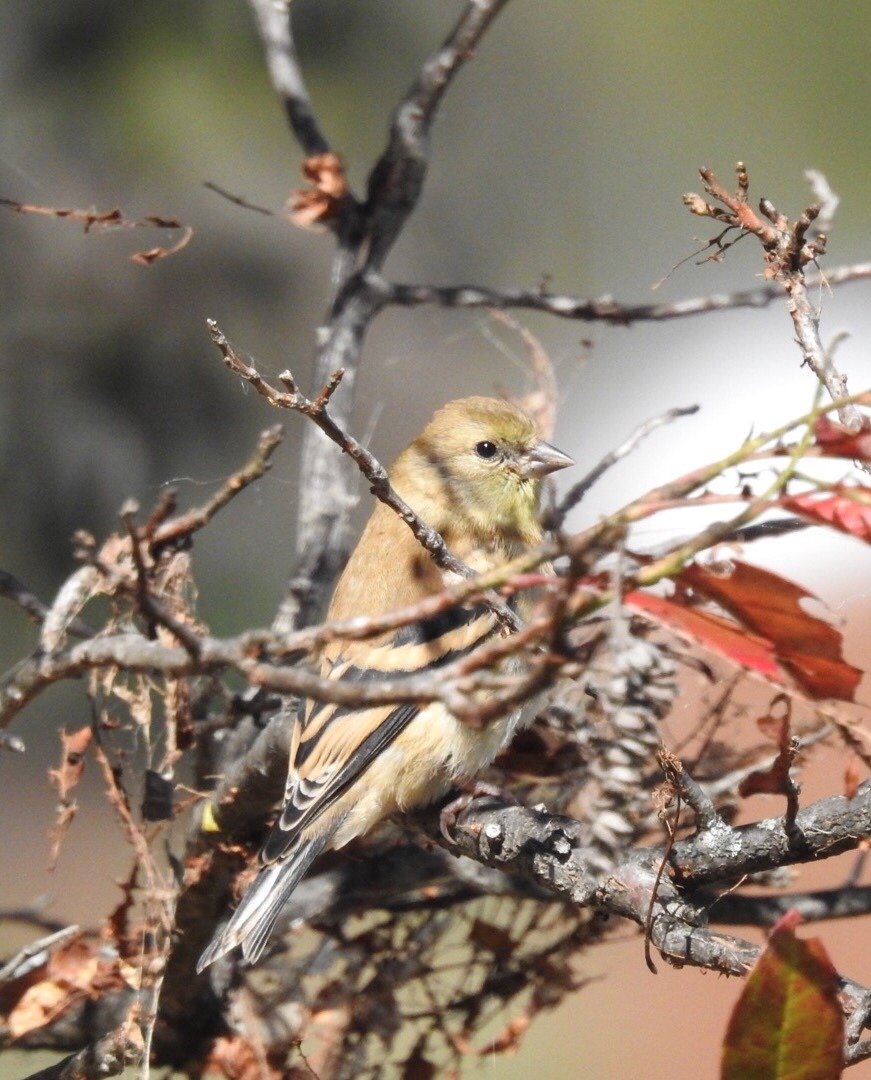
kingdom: Animalia
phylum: Chordata
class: Aves
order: Passeriformes
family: Fringillidae
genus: Spinus
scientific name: Spinus tristis
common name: American goldfinch
